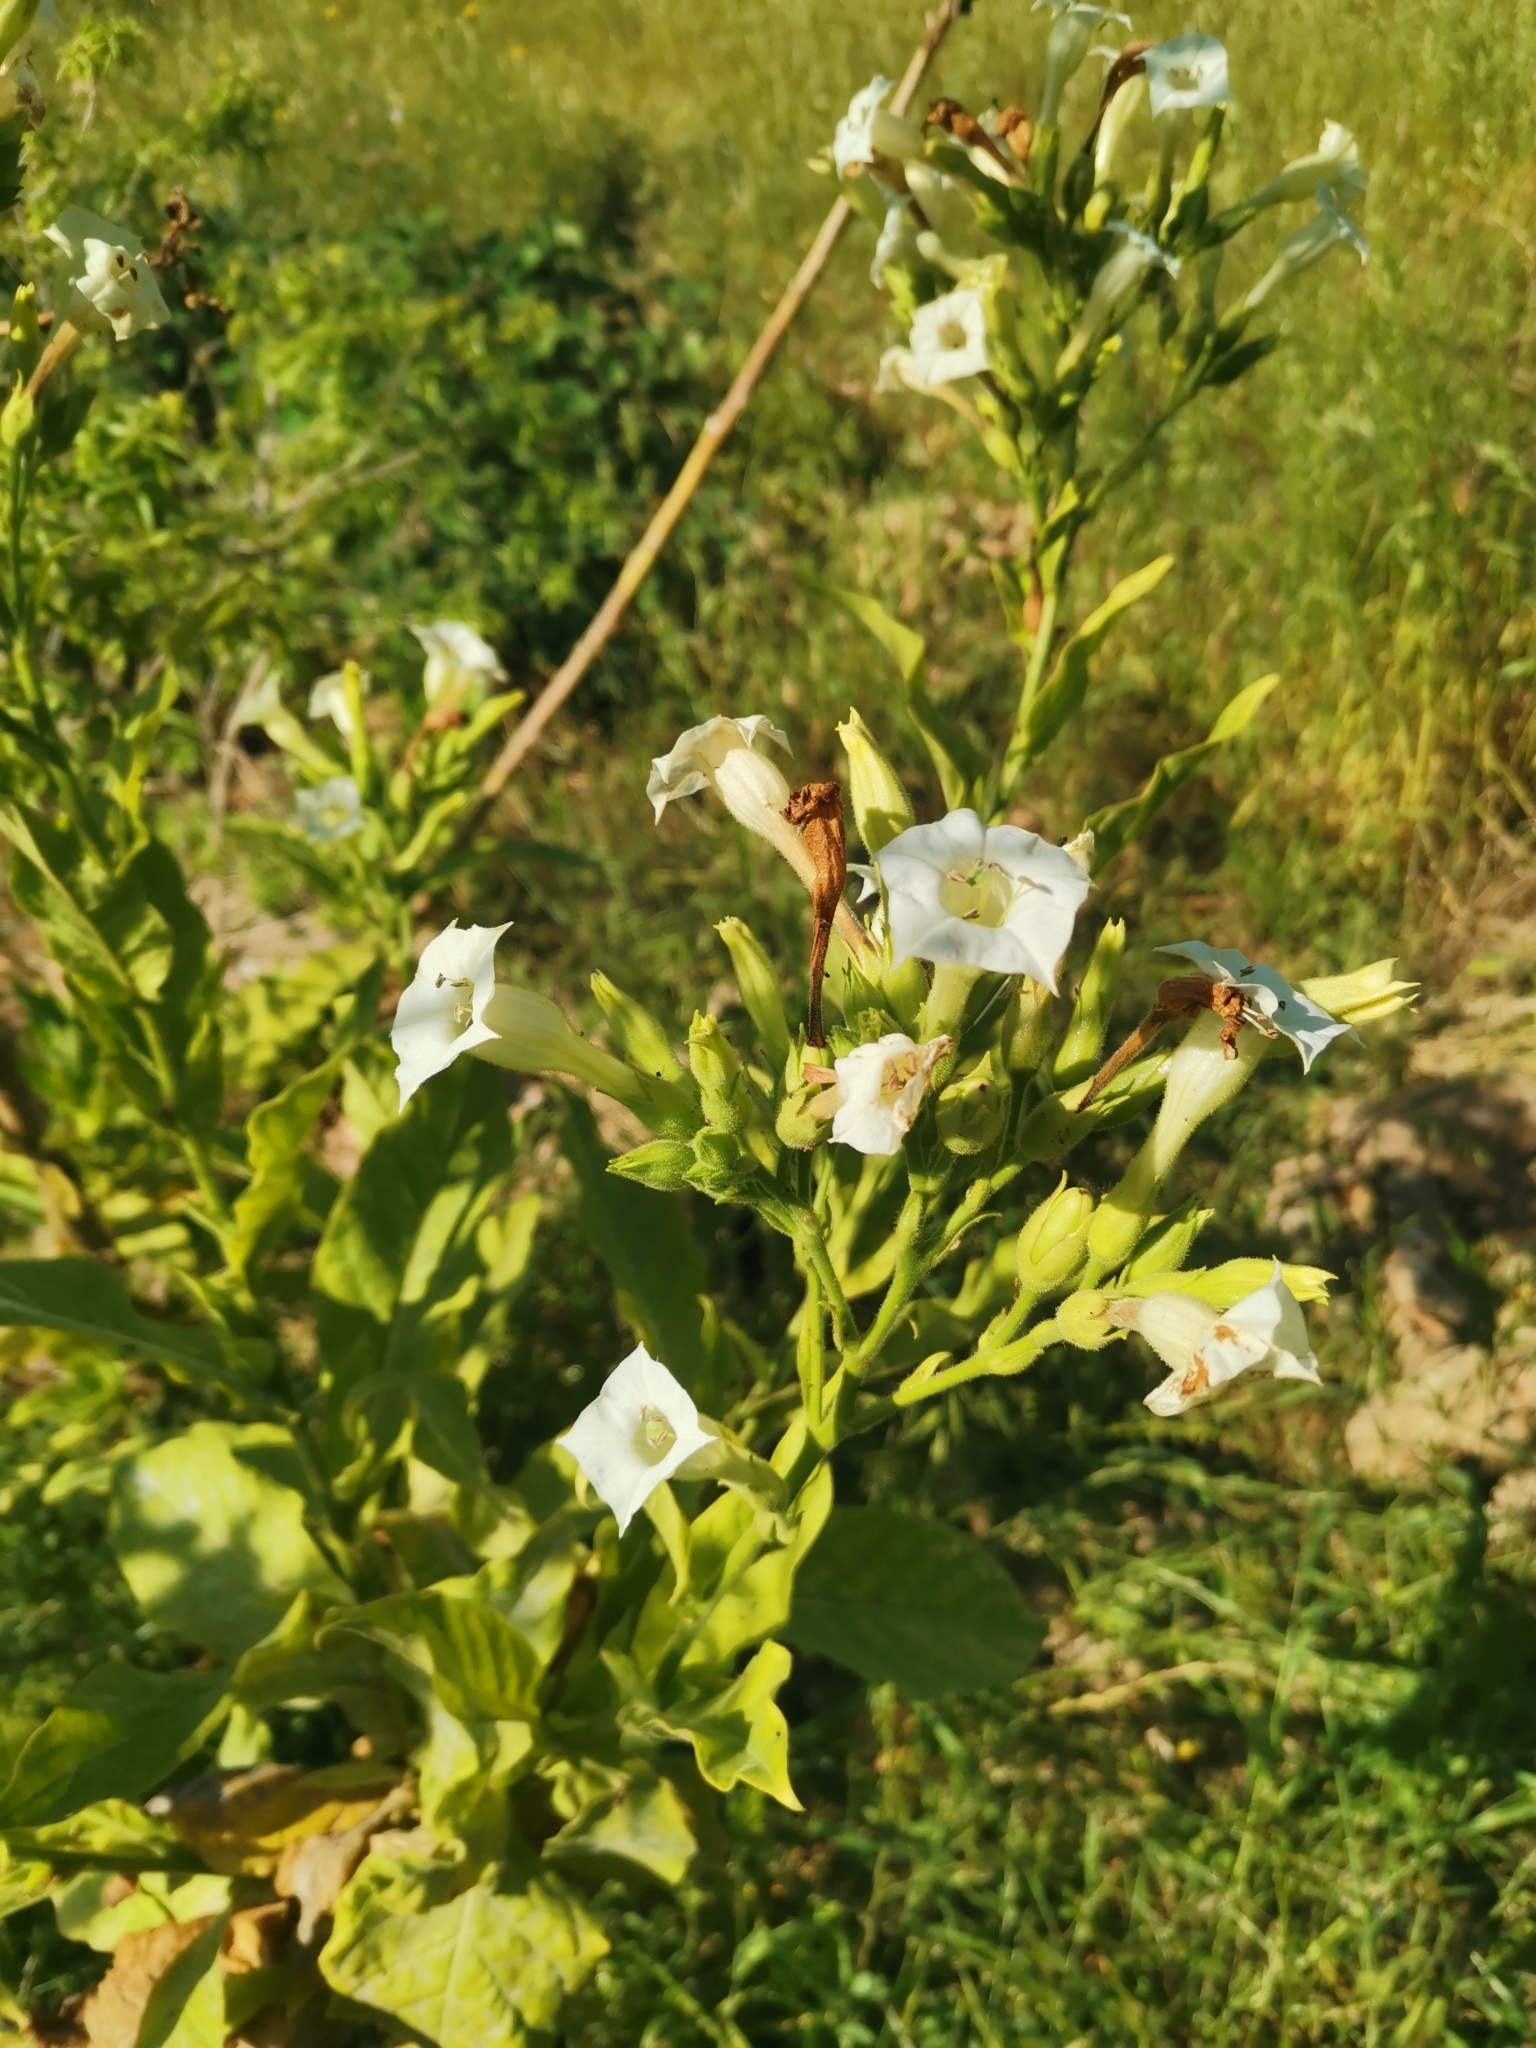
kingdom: Plantae
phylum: Tracheophyta
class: Magnoliopsida
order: Solanales
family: Solanaceae
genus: Nicotiana
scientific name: Nicotiana tabacum
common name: Tobacco
